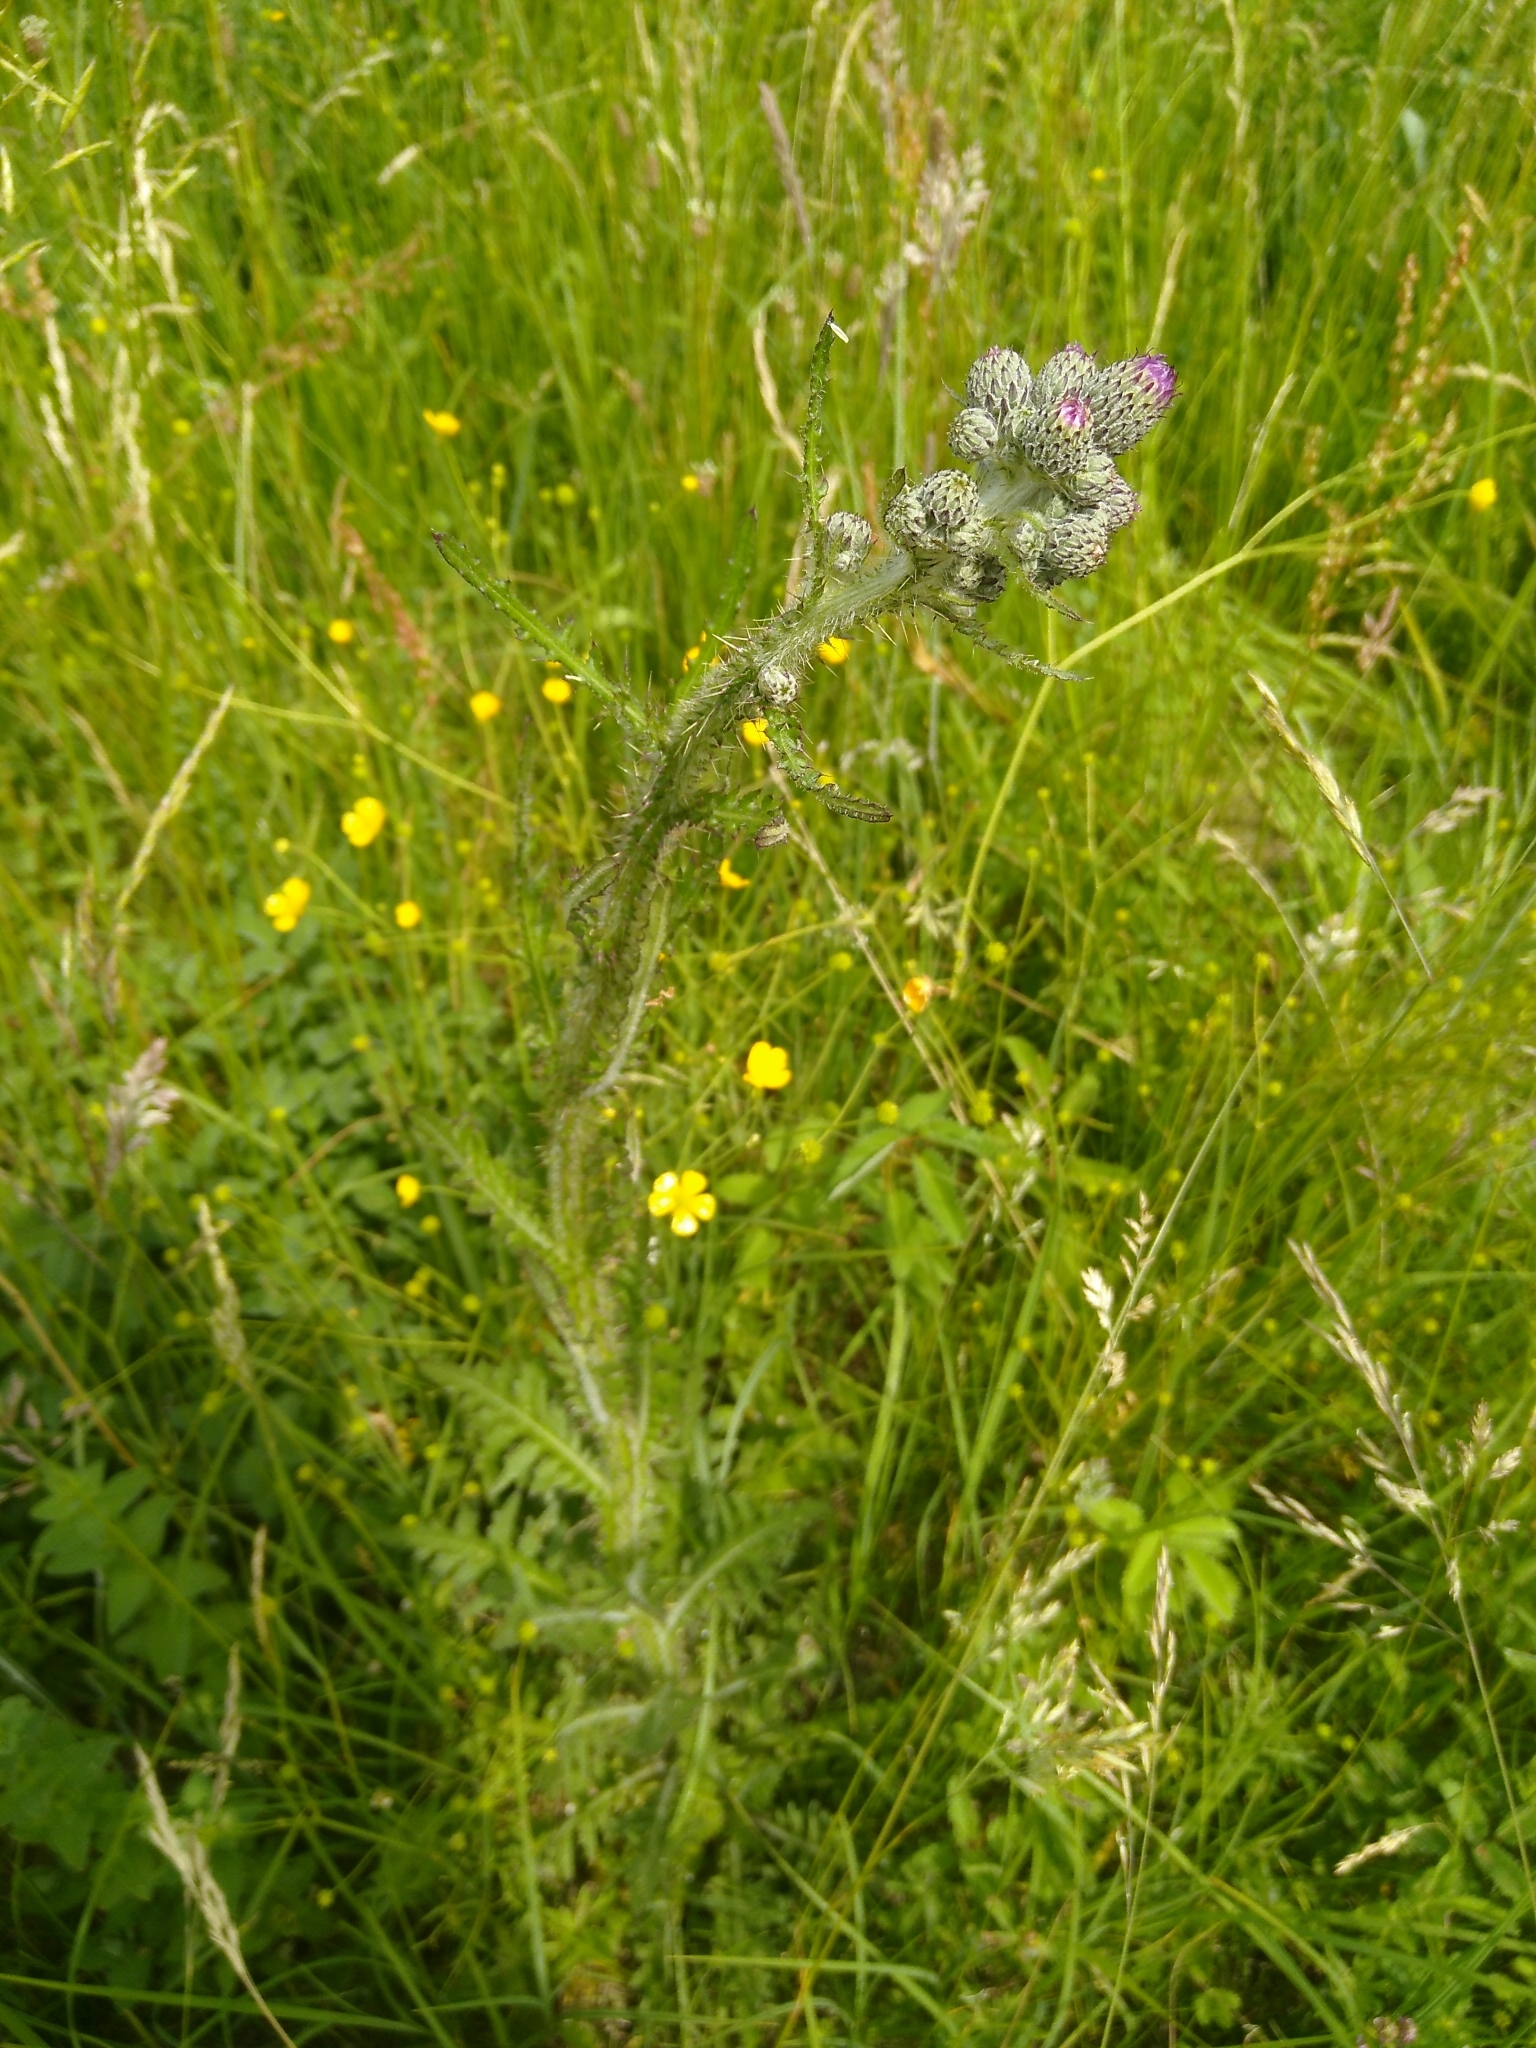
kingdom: Plantae
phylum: Tracheophyta
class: Magnoliopsida
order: Asterales
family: Asteraceae
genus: Cirsium
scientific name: Cirsium palustre
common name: Marsh thistle
